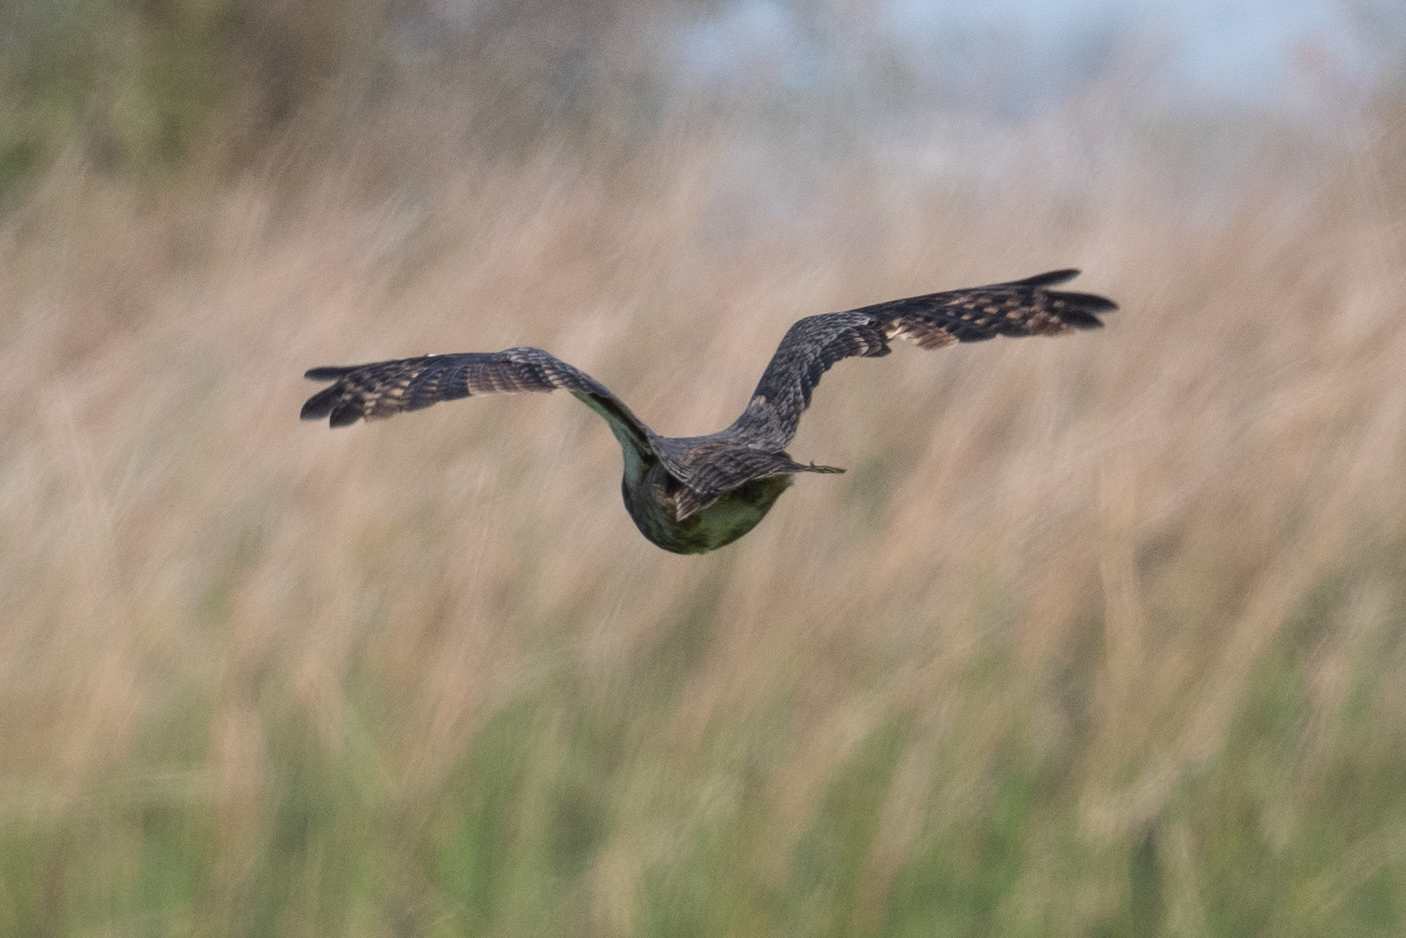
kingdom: Animalia
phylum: Chordata
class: Aves
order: Strigiformes
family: Strigidae
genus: Bubo
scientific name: Bubo virginianus
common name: Great horned owl
